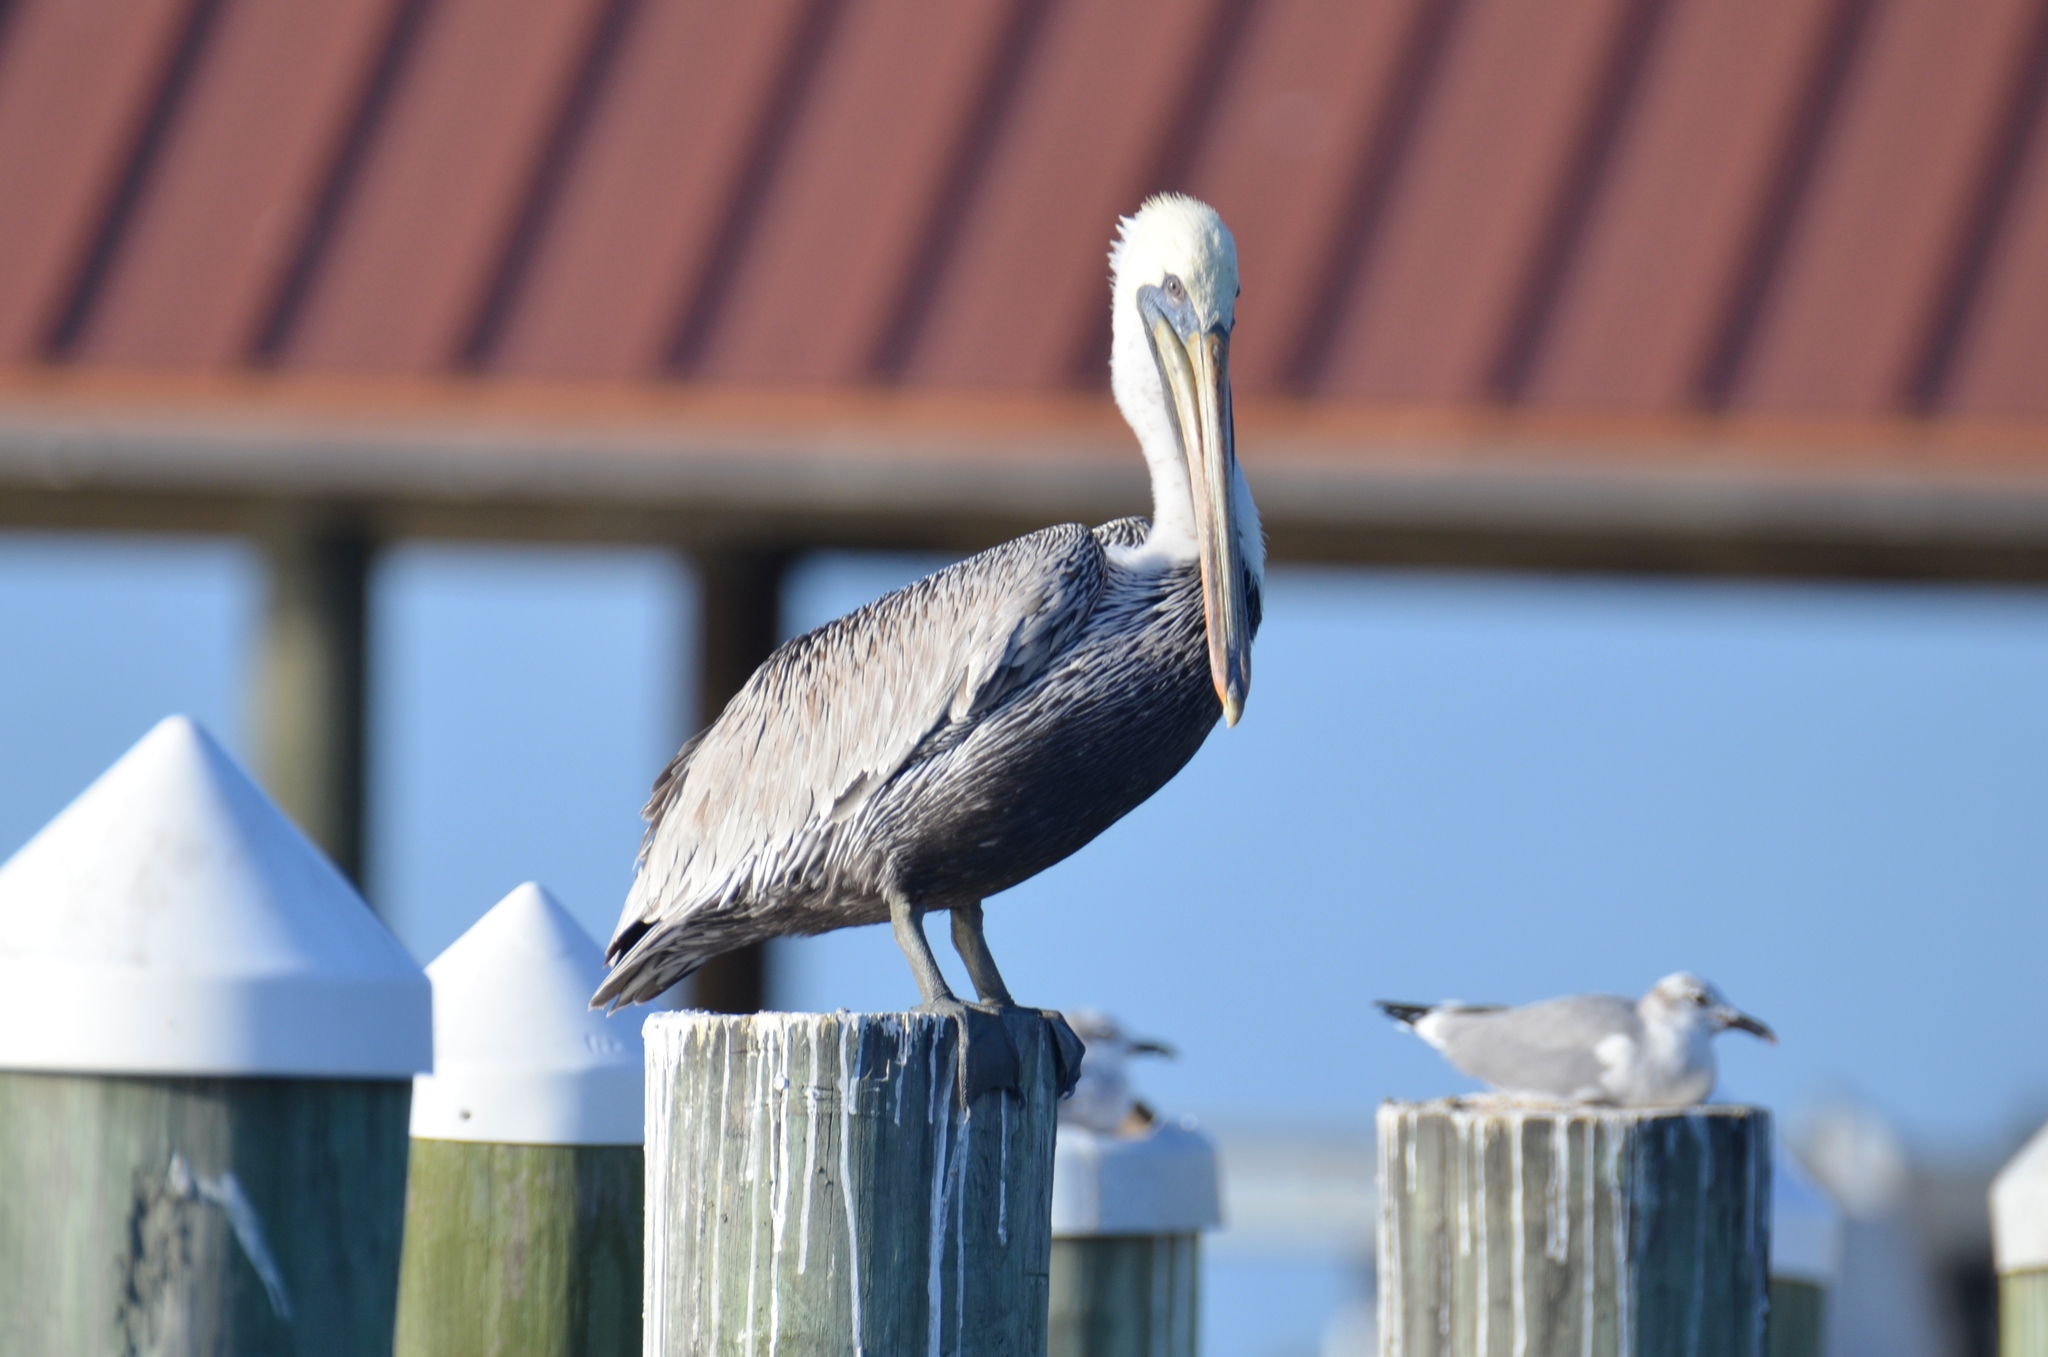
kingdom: Animalia
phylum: Chordata
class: Aves
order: Pelecaniformes
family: Pelecanidae
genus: Pelecanus
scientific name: Pelecanus occidentalis
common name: Brown pelican
